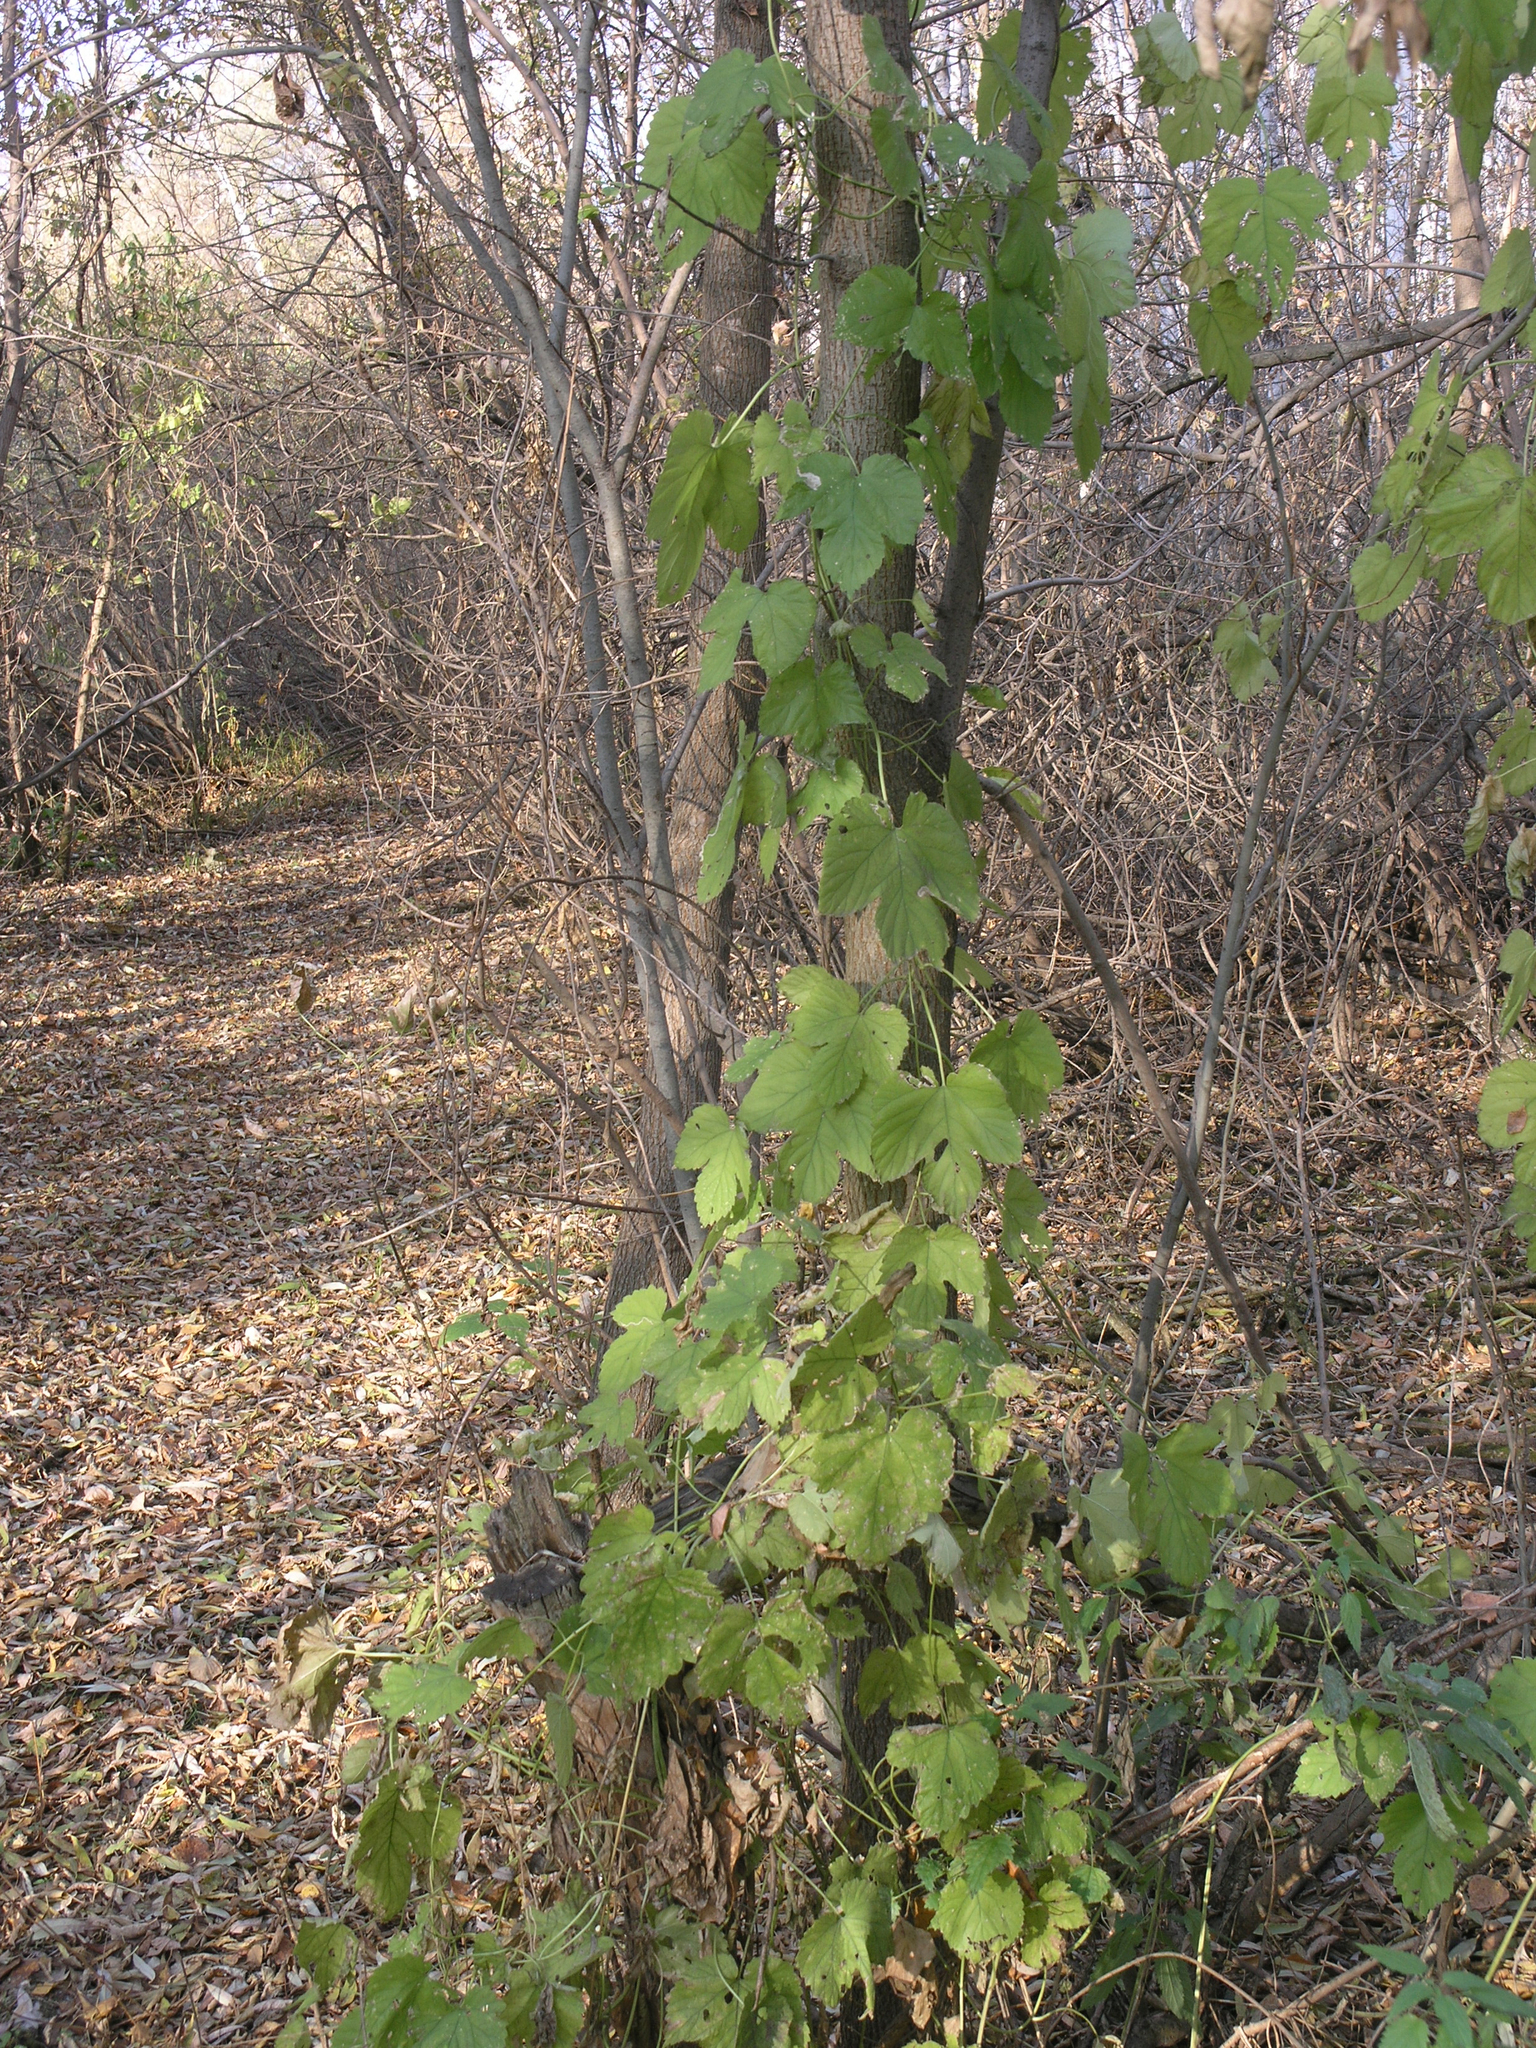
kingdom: Plantae
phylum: Tracheophyta
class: Magnoliopsida
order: Rosales
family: Cannabaceae
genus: Humulus
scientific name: Humulus lupulus
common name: Hop
